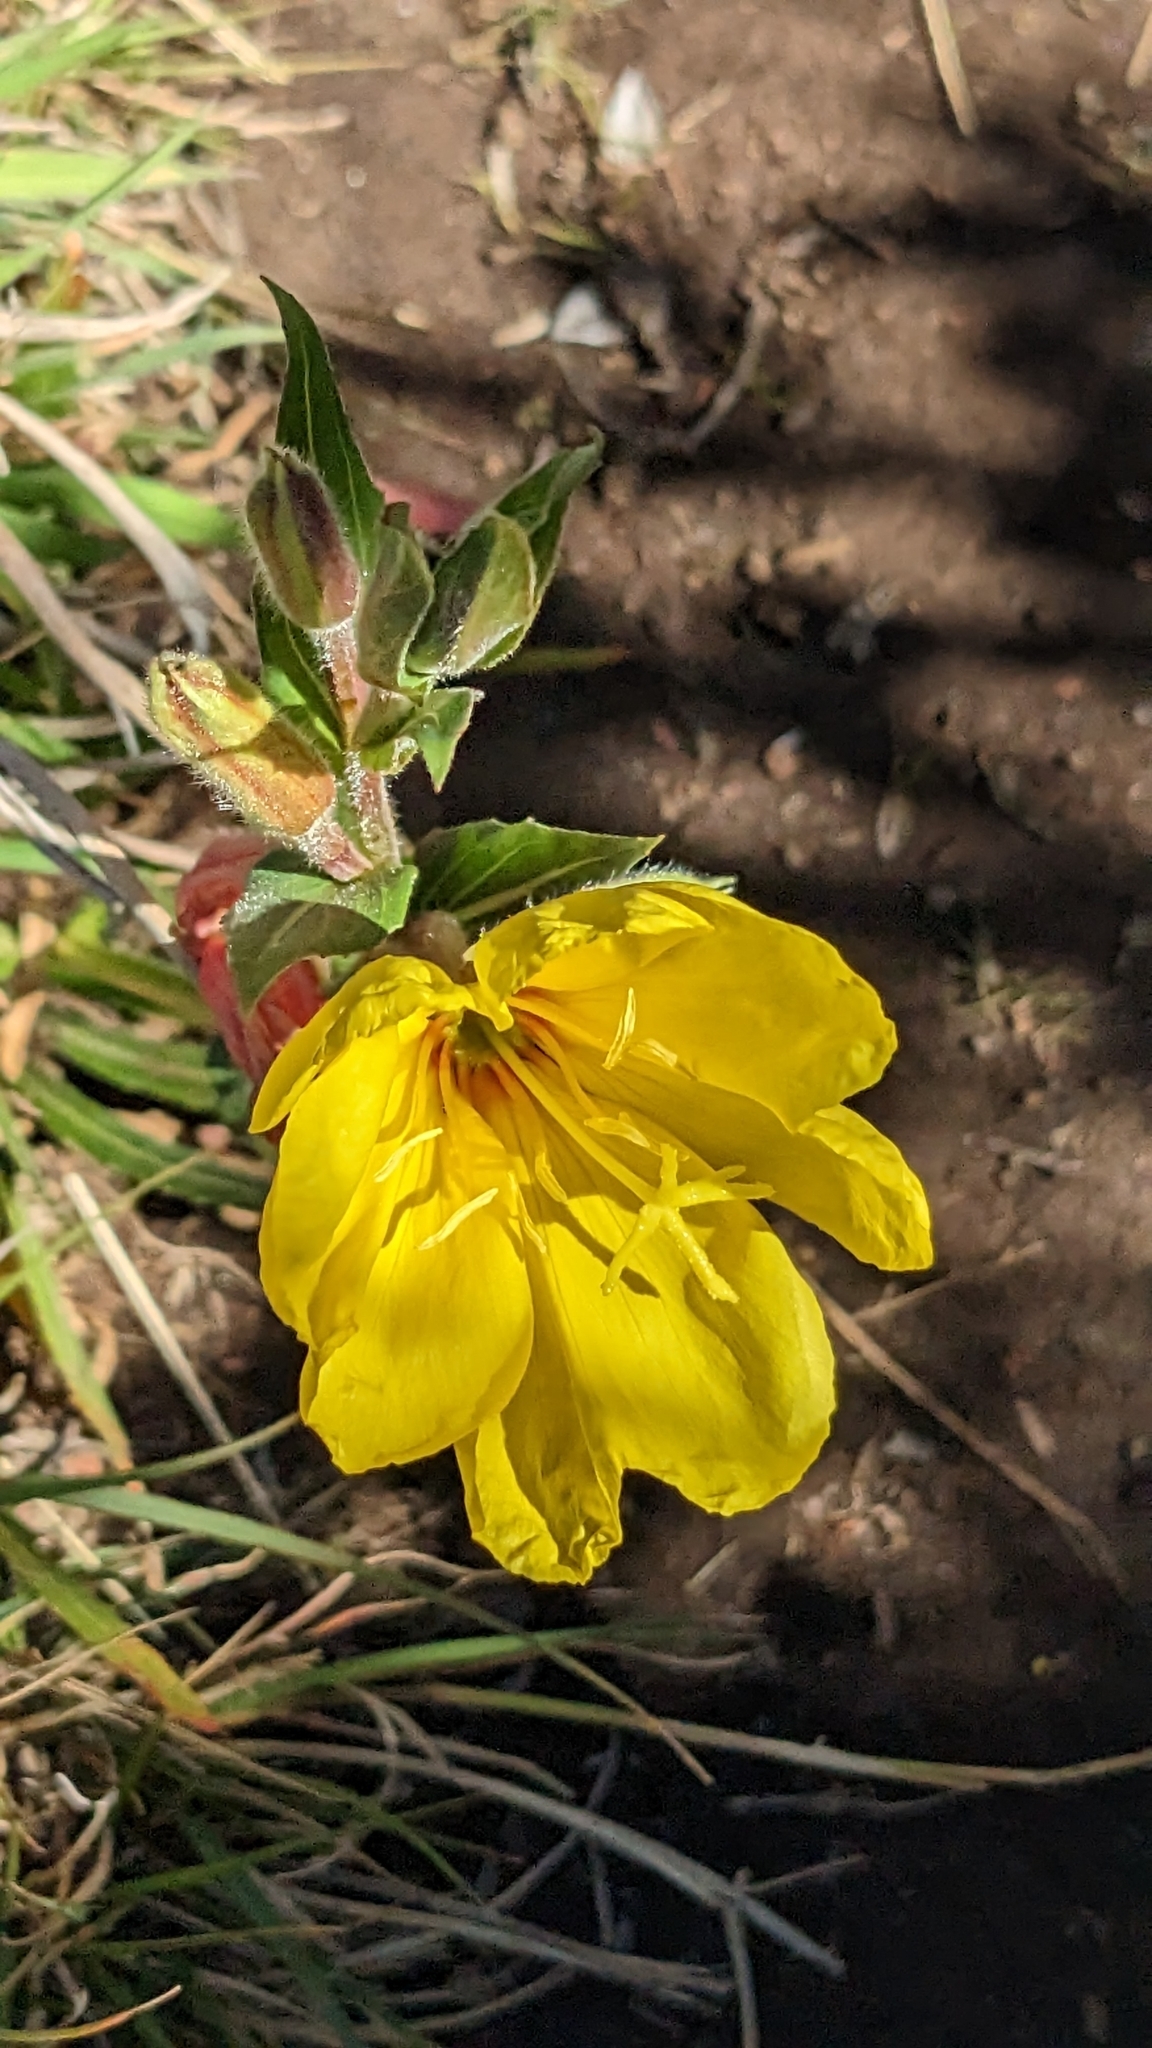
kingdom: Plantae
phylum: Tracheophyta
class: Magnoliopsida
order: Myrtales
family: Onagraceae
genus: Oenothera
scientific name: Oenothera stricta
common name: Fragrant evening-primrose
